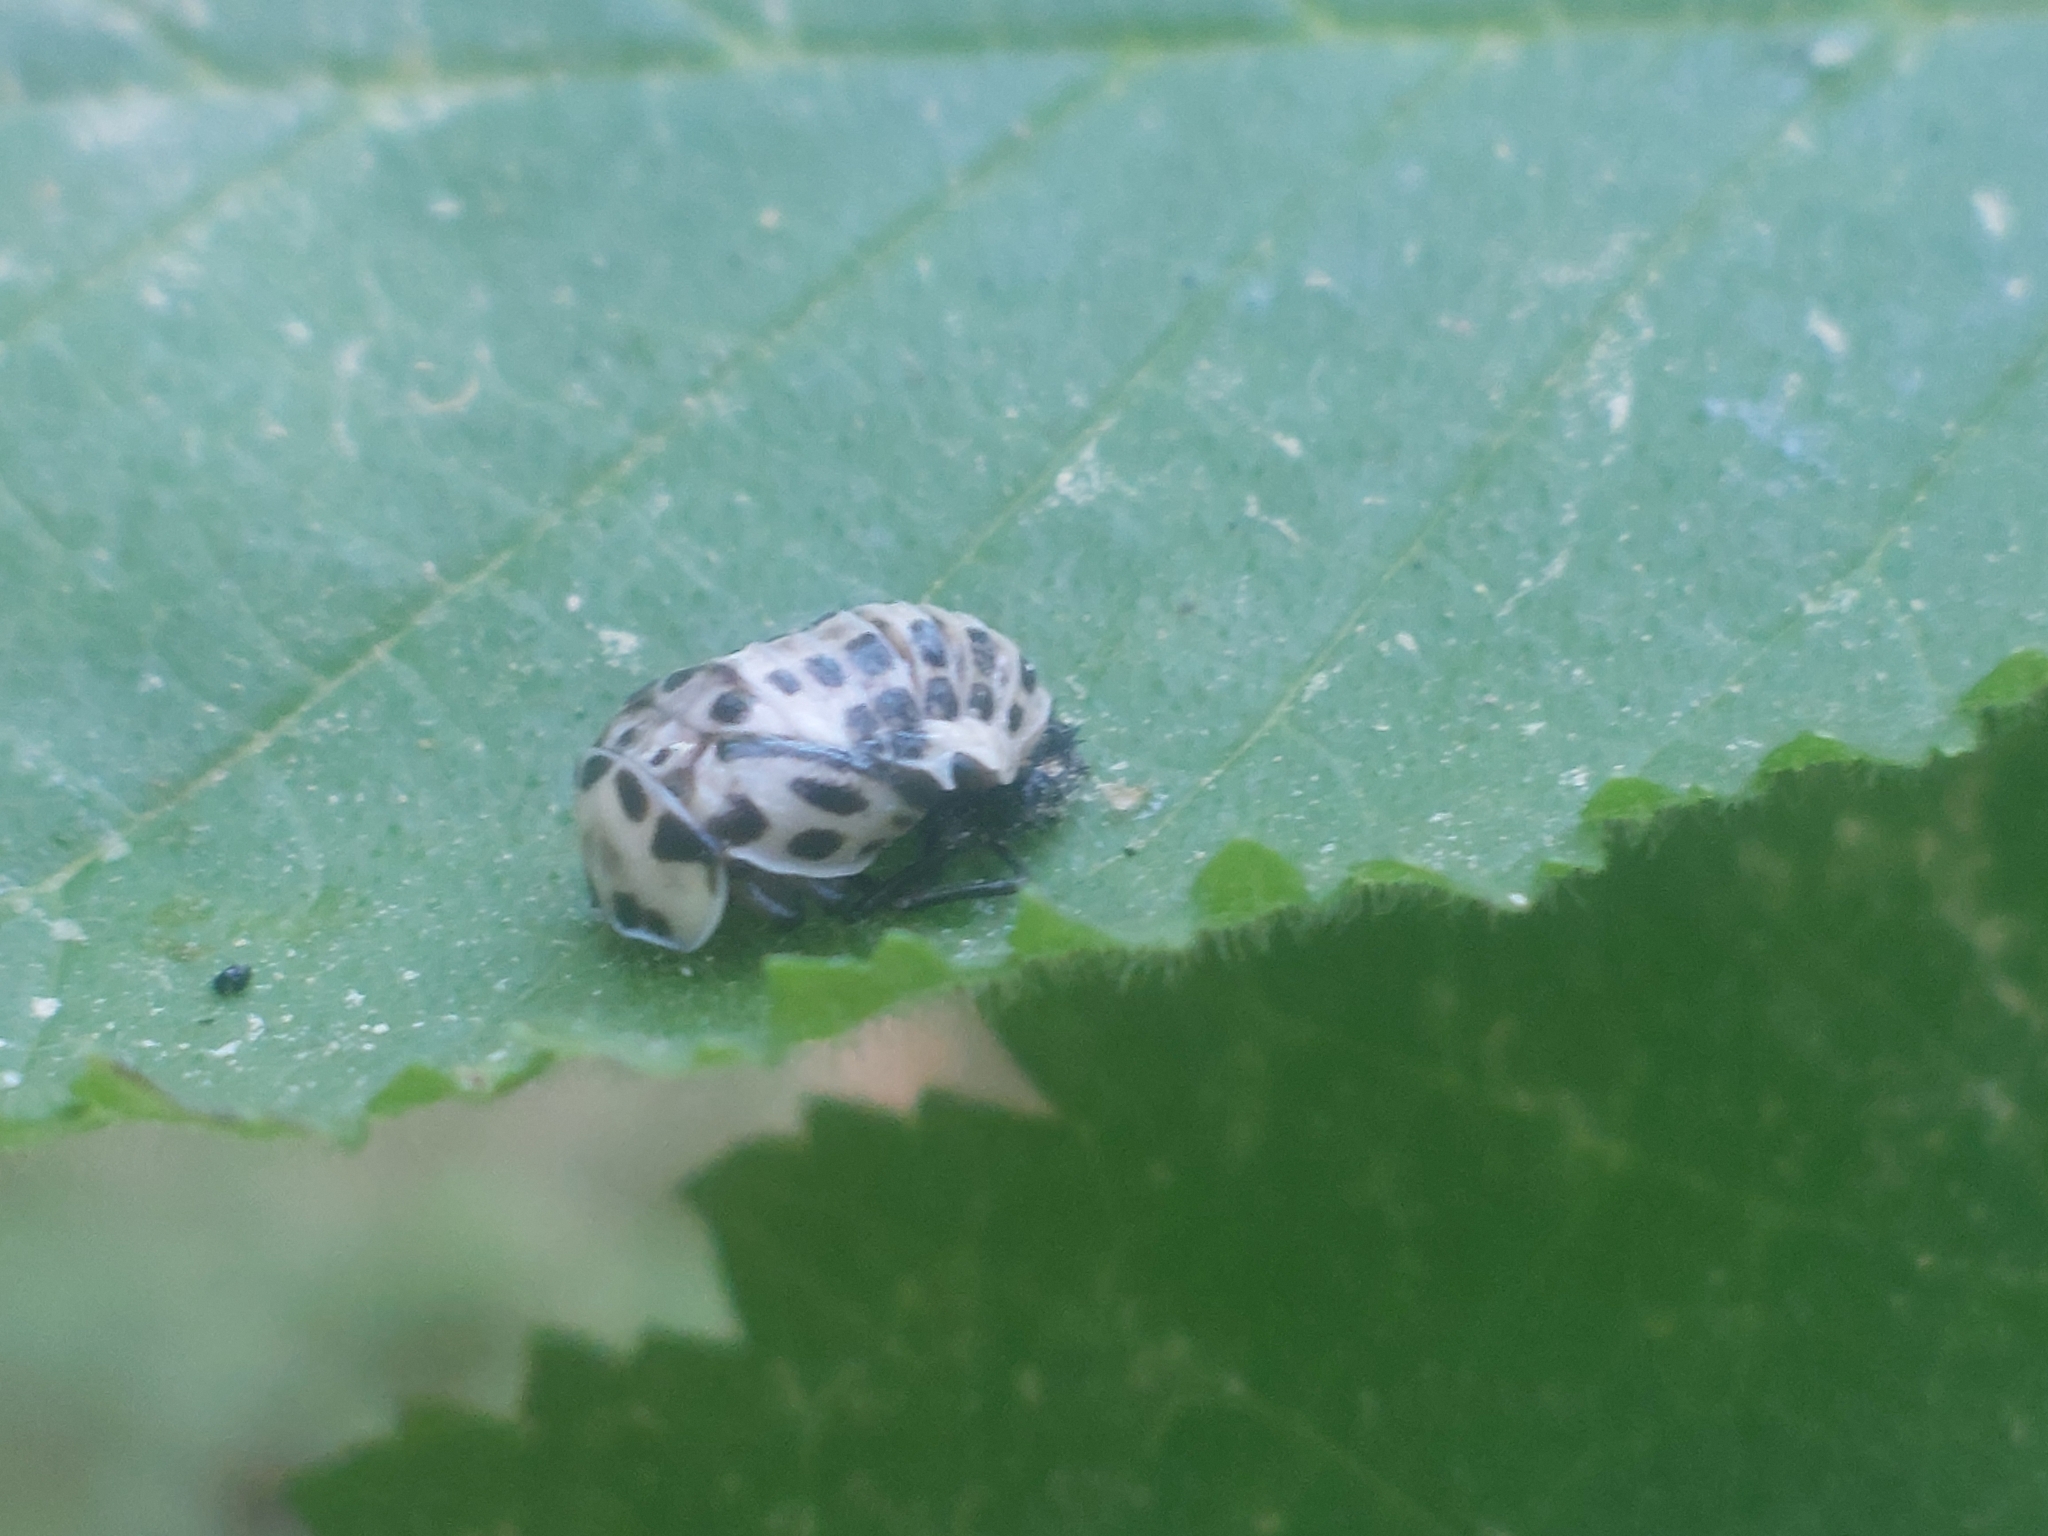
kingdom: Animalia
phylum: Arthropoda
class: Insecta
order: Coleoptera
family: Coccinellidae
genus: Anatis
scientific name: Anatis ocellata
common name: Eyed ladybird
